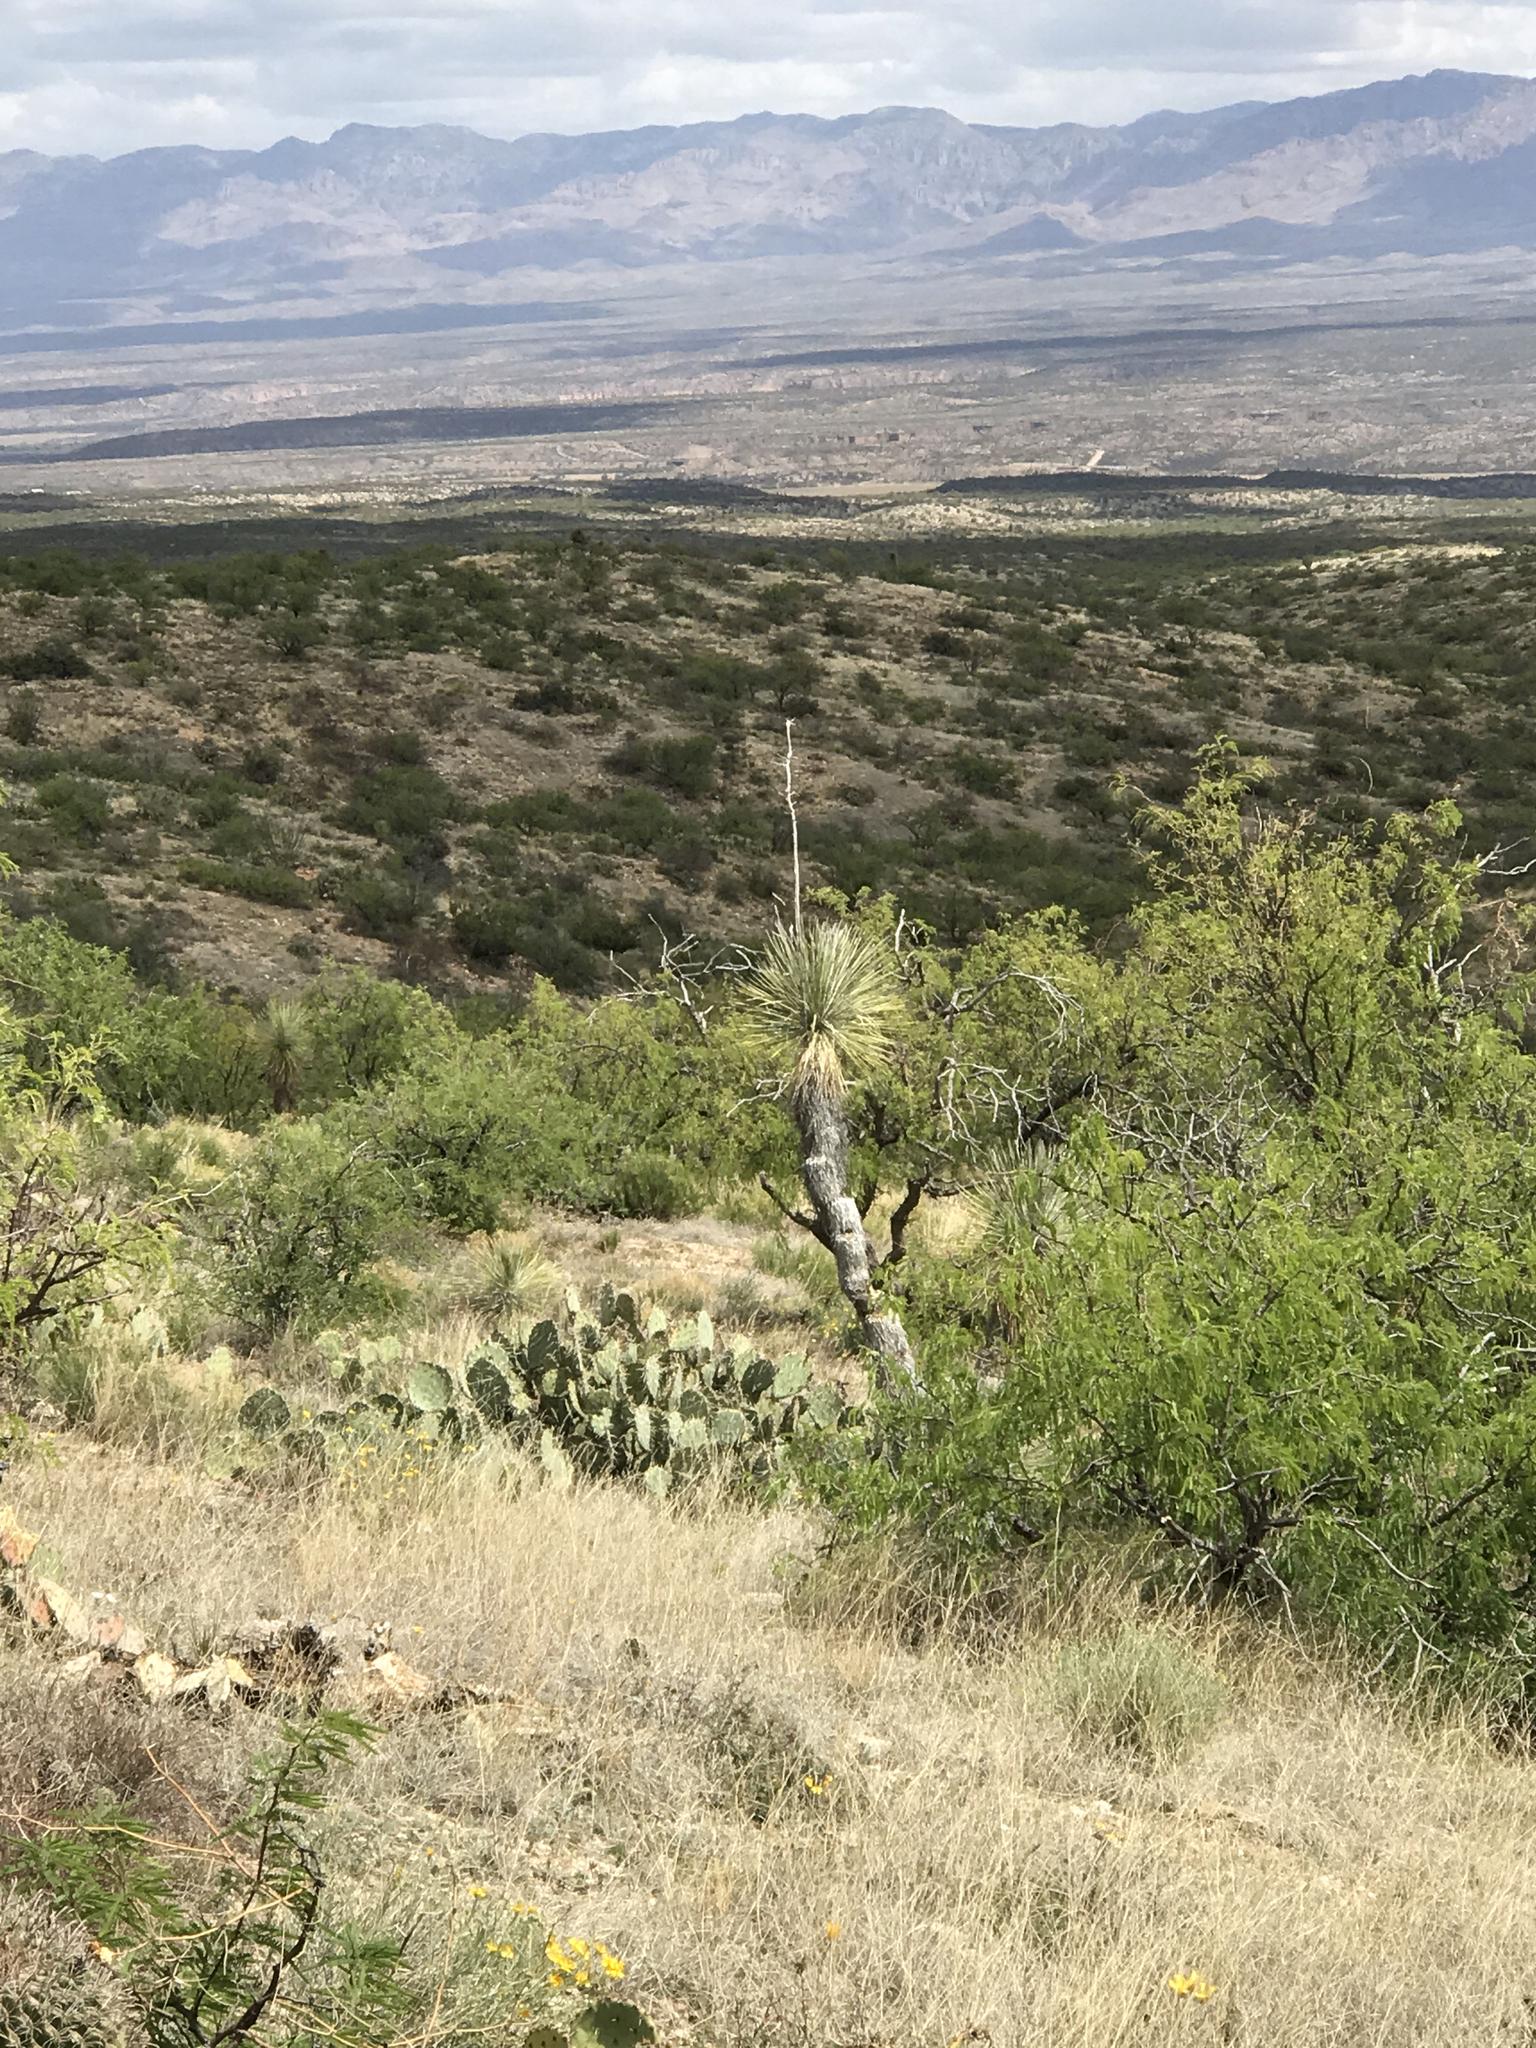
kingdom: Plantae
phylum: Tracheophyta
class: Liliopsida
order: Asparagales
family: Asparagaceae
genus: Yucca
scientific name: Yucca elata
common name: Palmella
